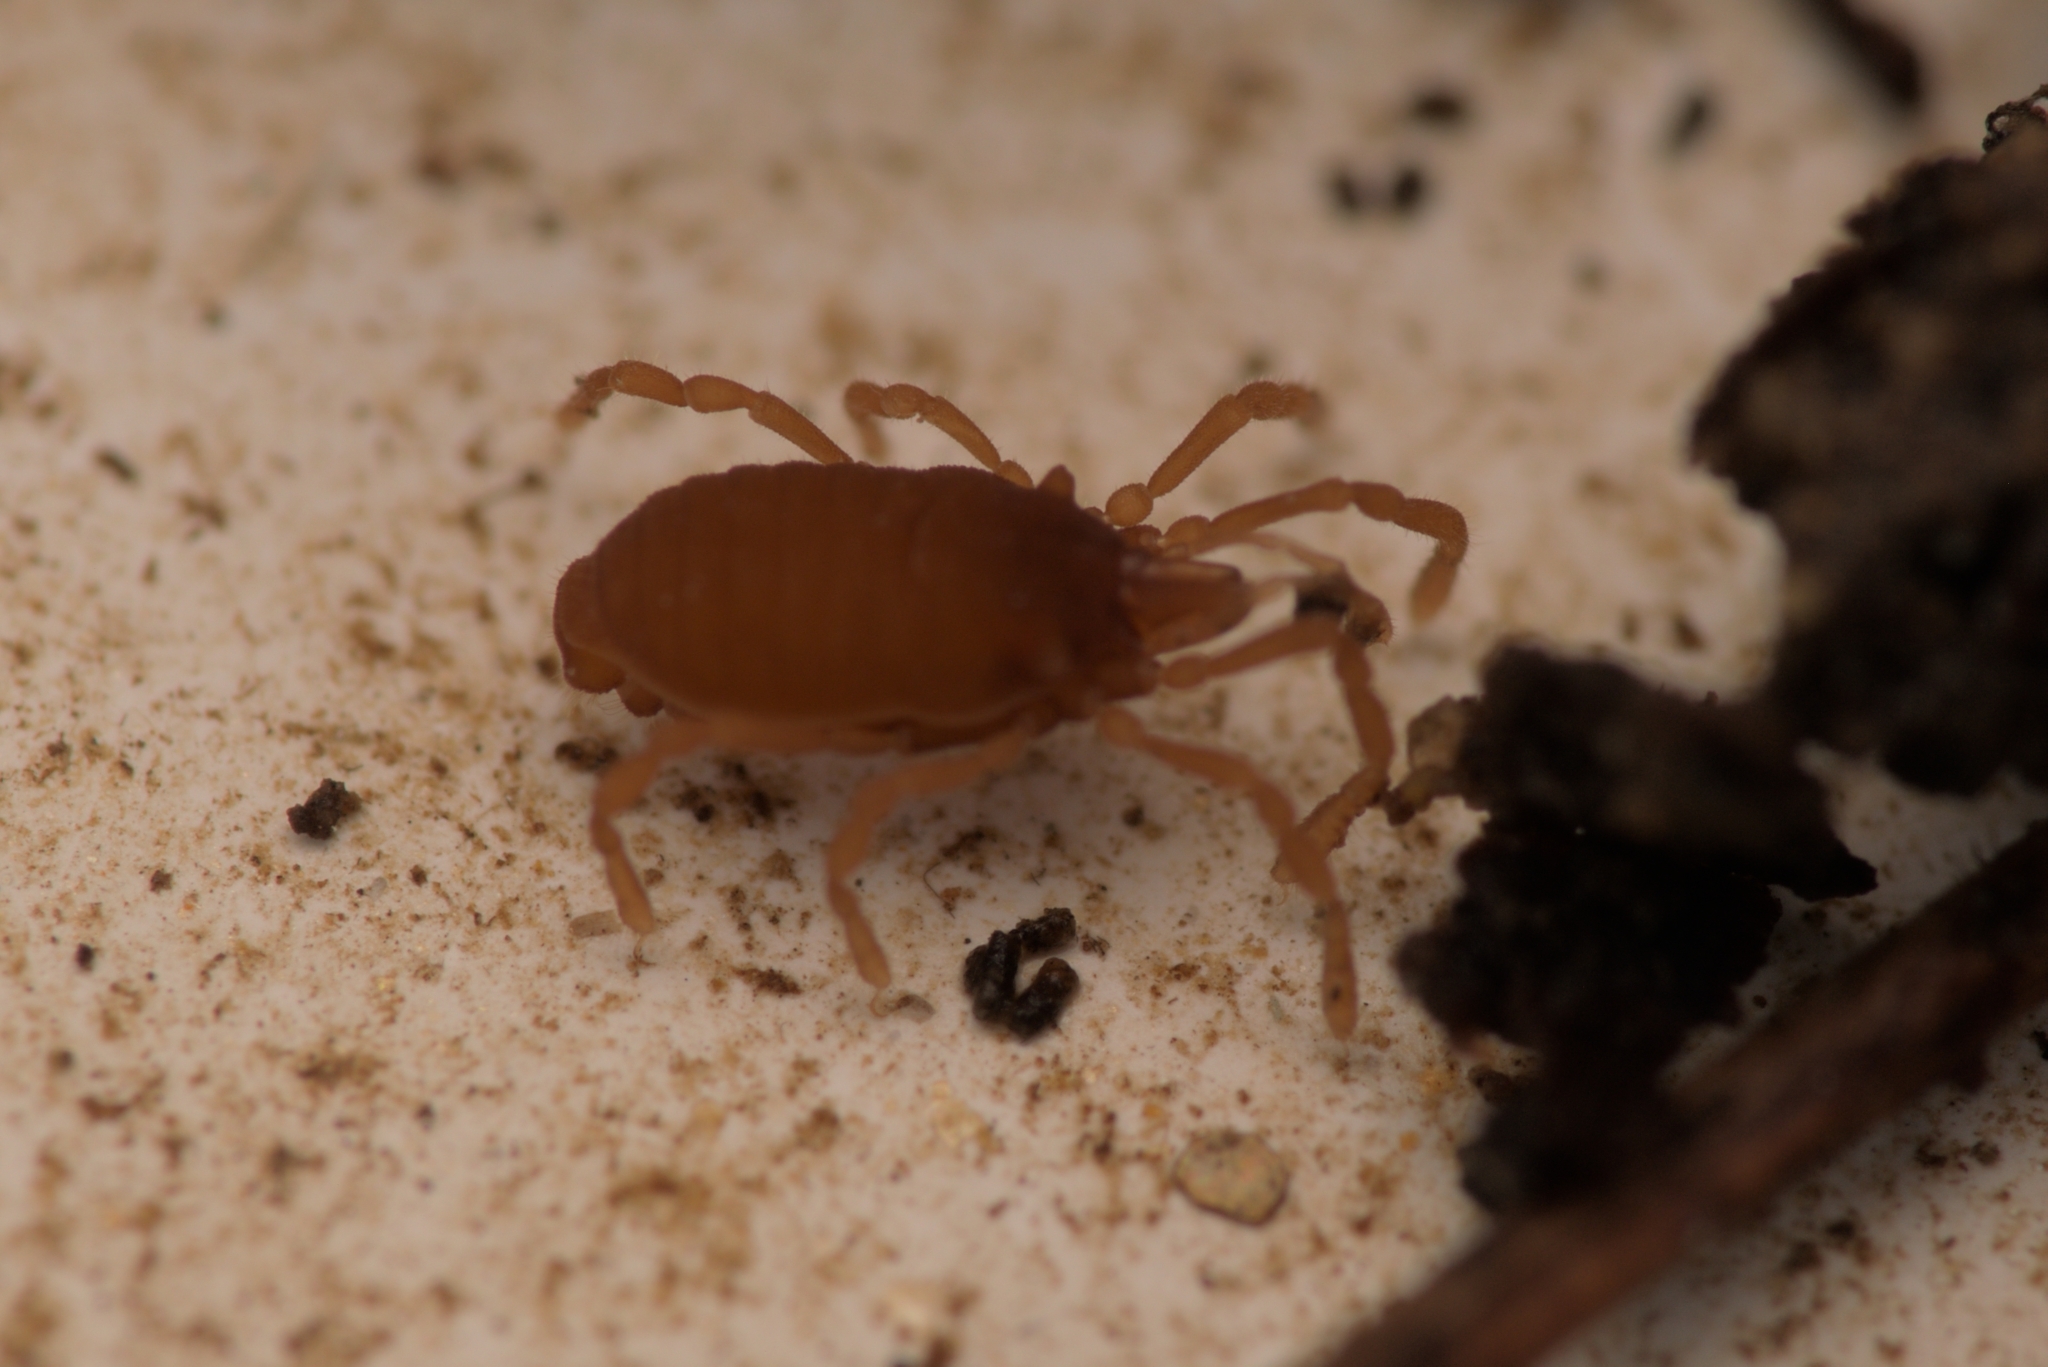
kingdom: Animalia
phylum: Arthropoda
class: Arachnida
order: Opiliones
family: Sironidae
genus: Siro
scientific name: Siro rubens
